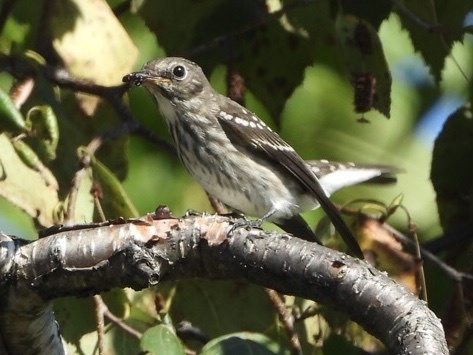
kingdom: Animalia
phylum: Chordata
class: Aves
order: Passeriformes
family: Muscicapidae
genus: Muscicapa
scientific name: Muscicapa griseisticta
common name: Gray-streaked flycatcher
